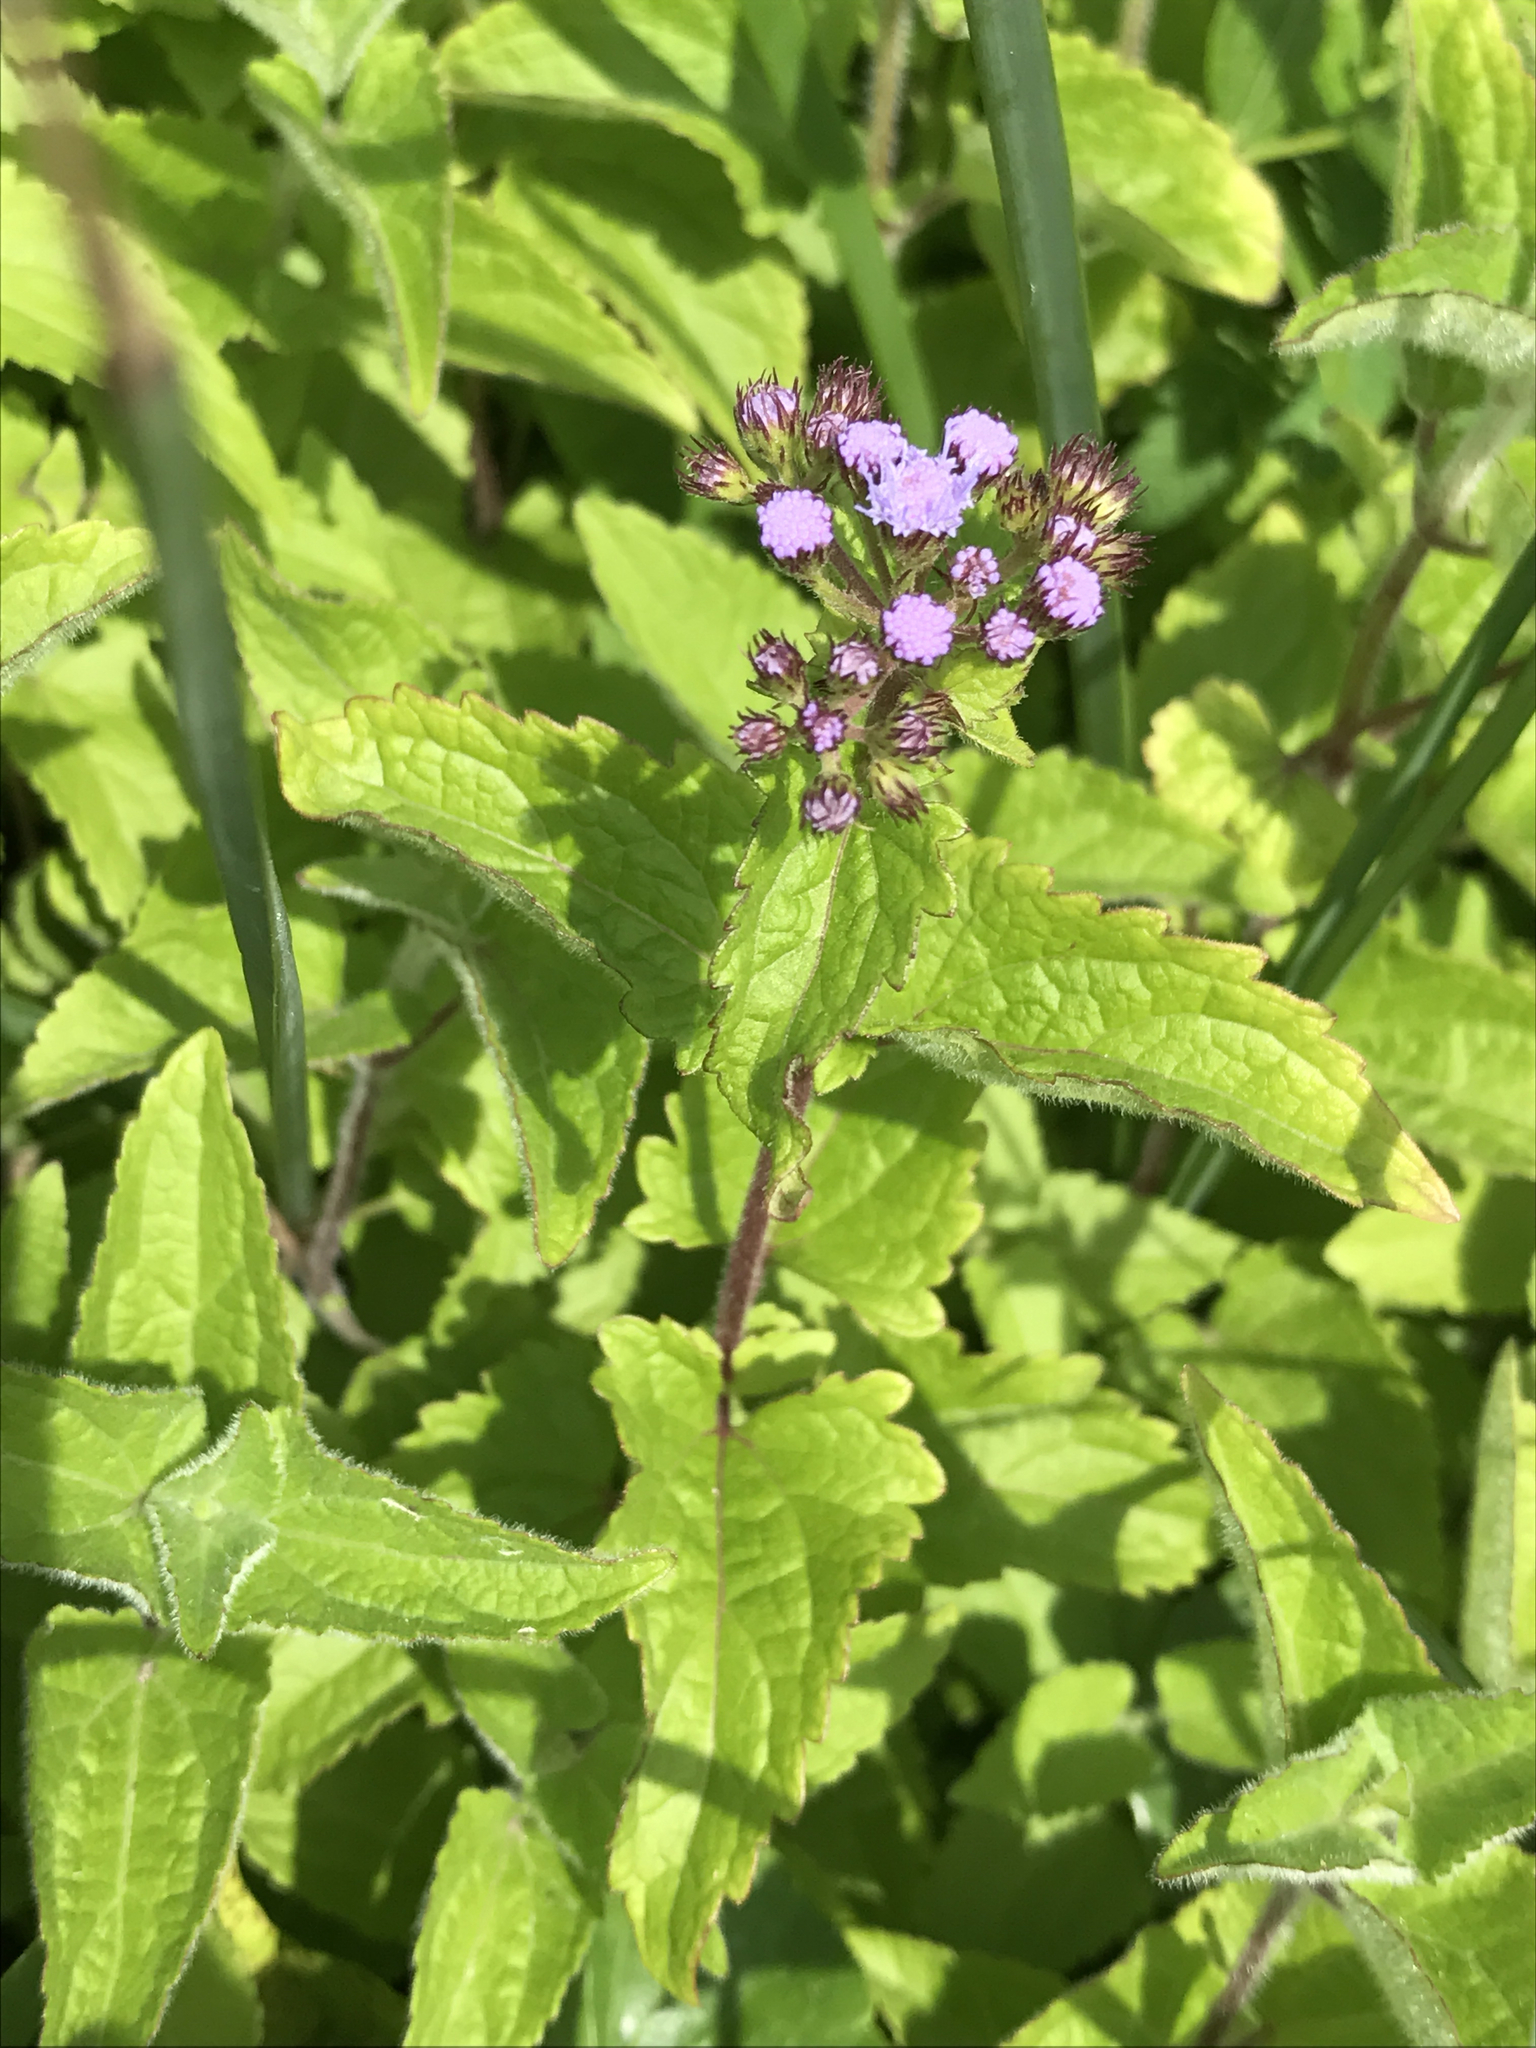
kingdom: Plantae
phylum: Tracheophyta
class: Magnoliopsida
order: Asterales
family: Asteraceae
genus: Conoclinium
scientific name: Conoclinium coelestinum
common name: Blue mistflower
